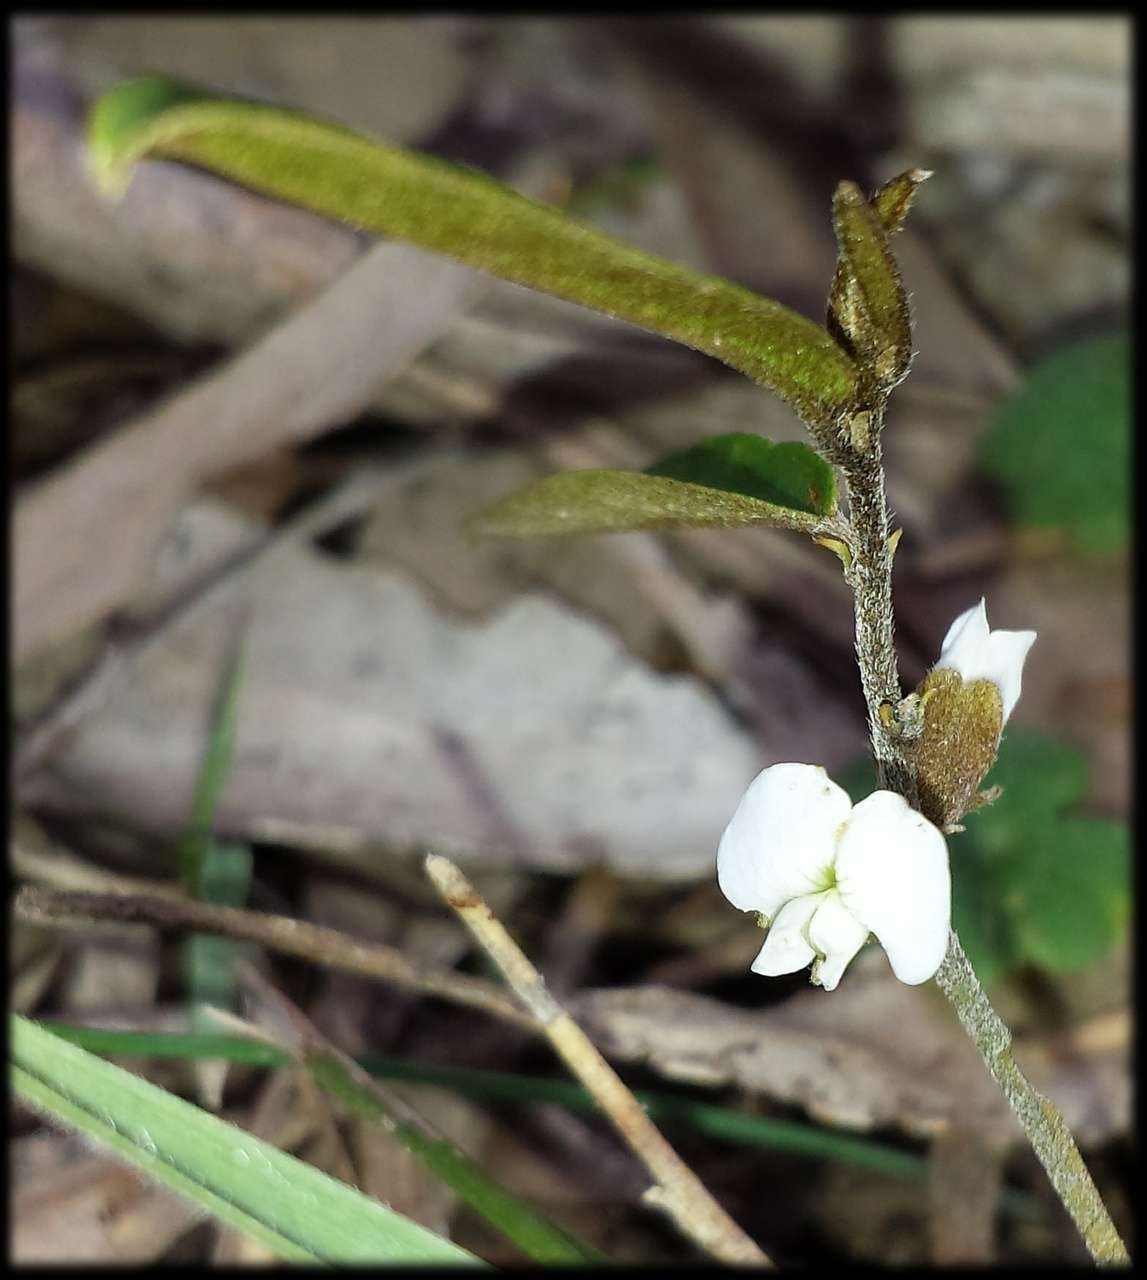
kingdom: Plantae
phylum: Tracheophyta
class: Magnoliopsida
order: Fabales
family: Fabaceae
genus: Hovea
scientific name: Hovea heterophylla
